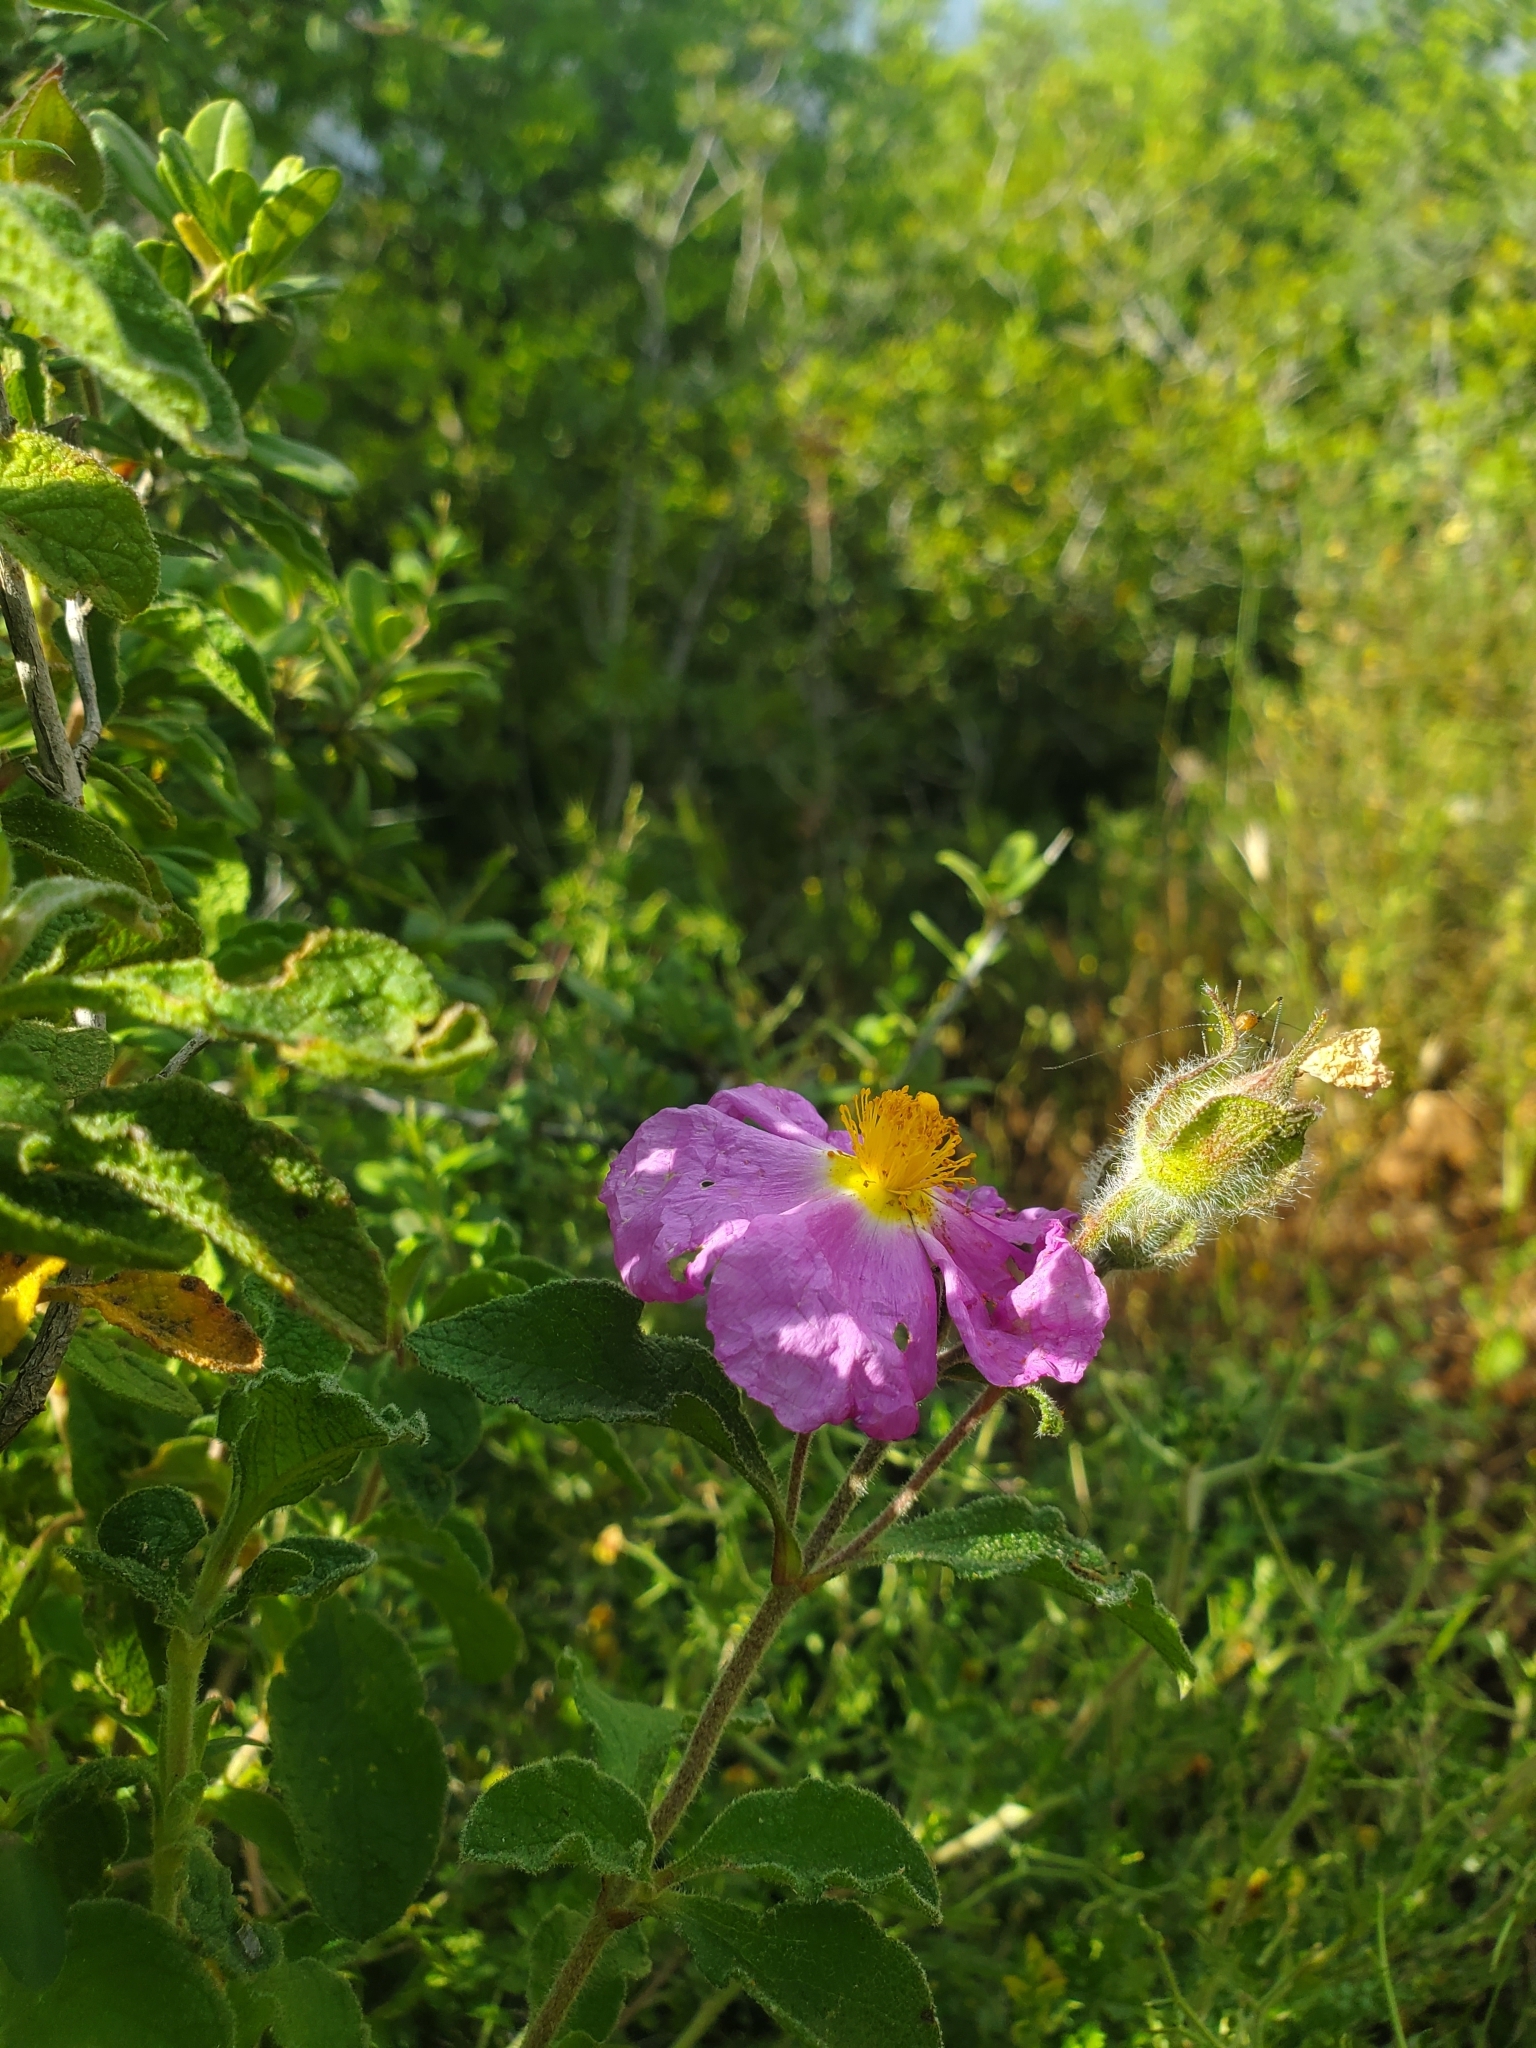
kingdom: Plantae
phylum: Tracheophyta
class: Magnoliopsida
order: Malvales
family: Cistaceae
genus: Cistus
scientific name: Cistus creticus
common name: Cretan rockrose
